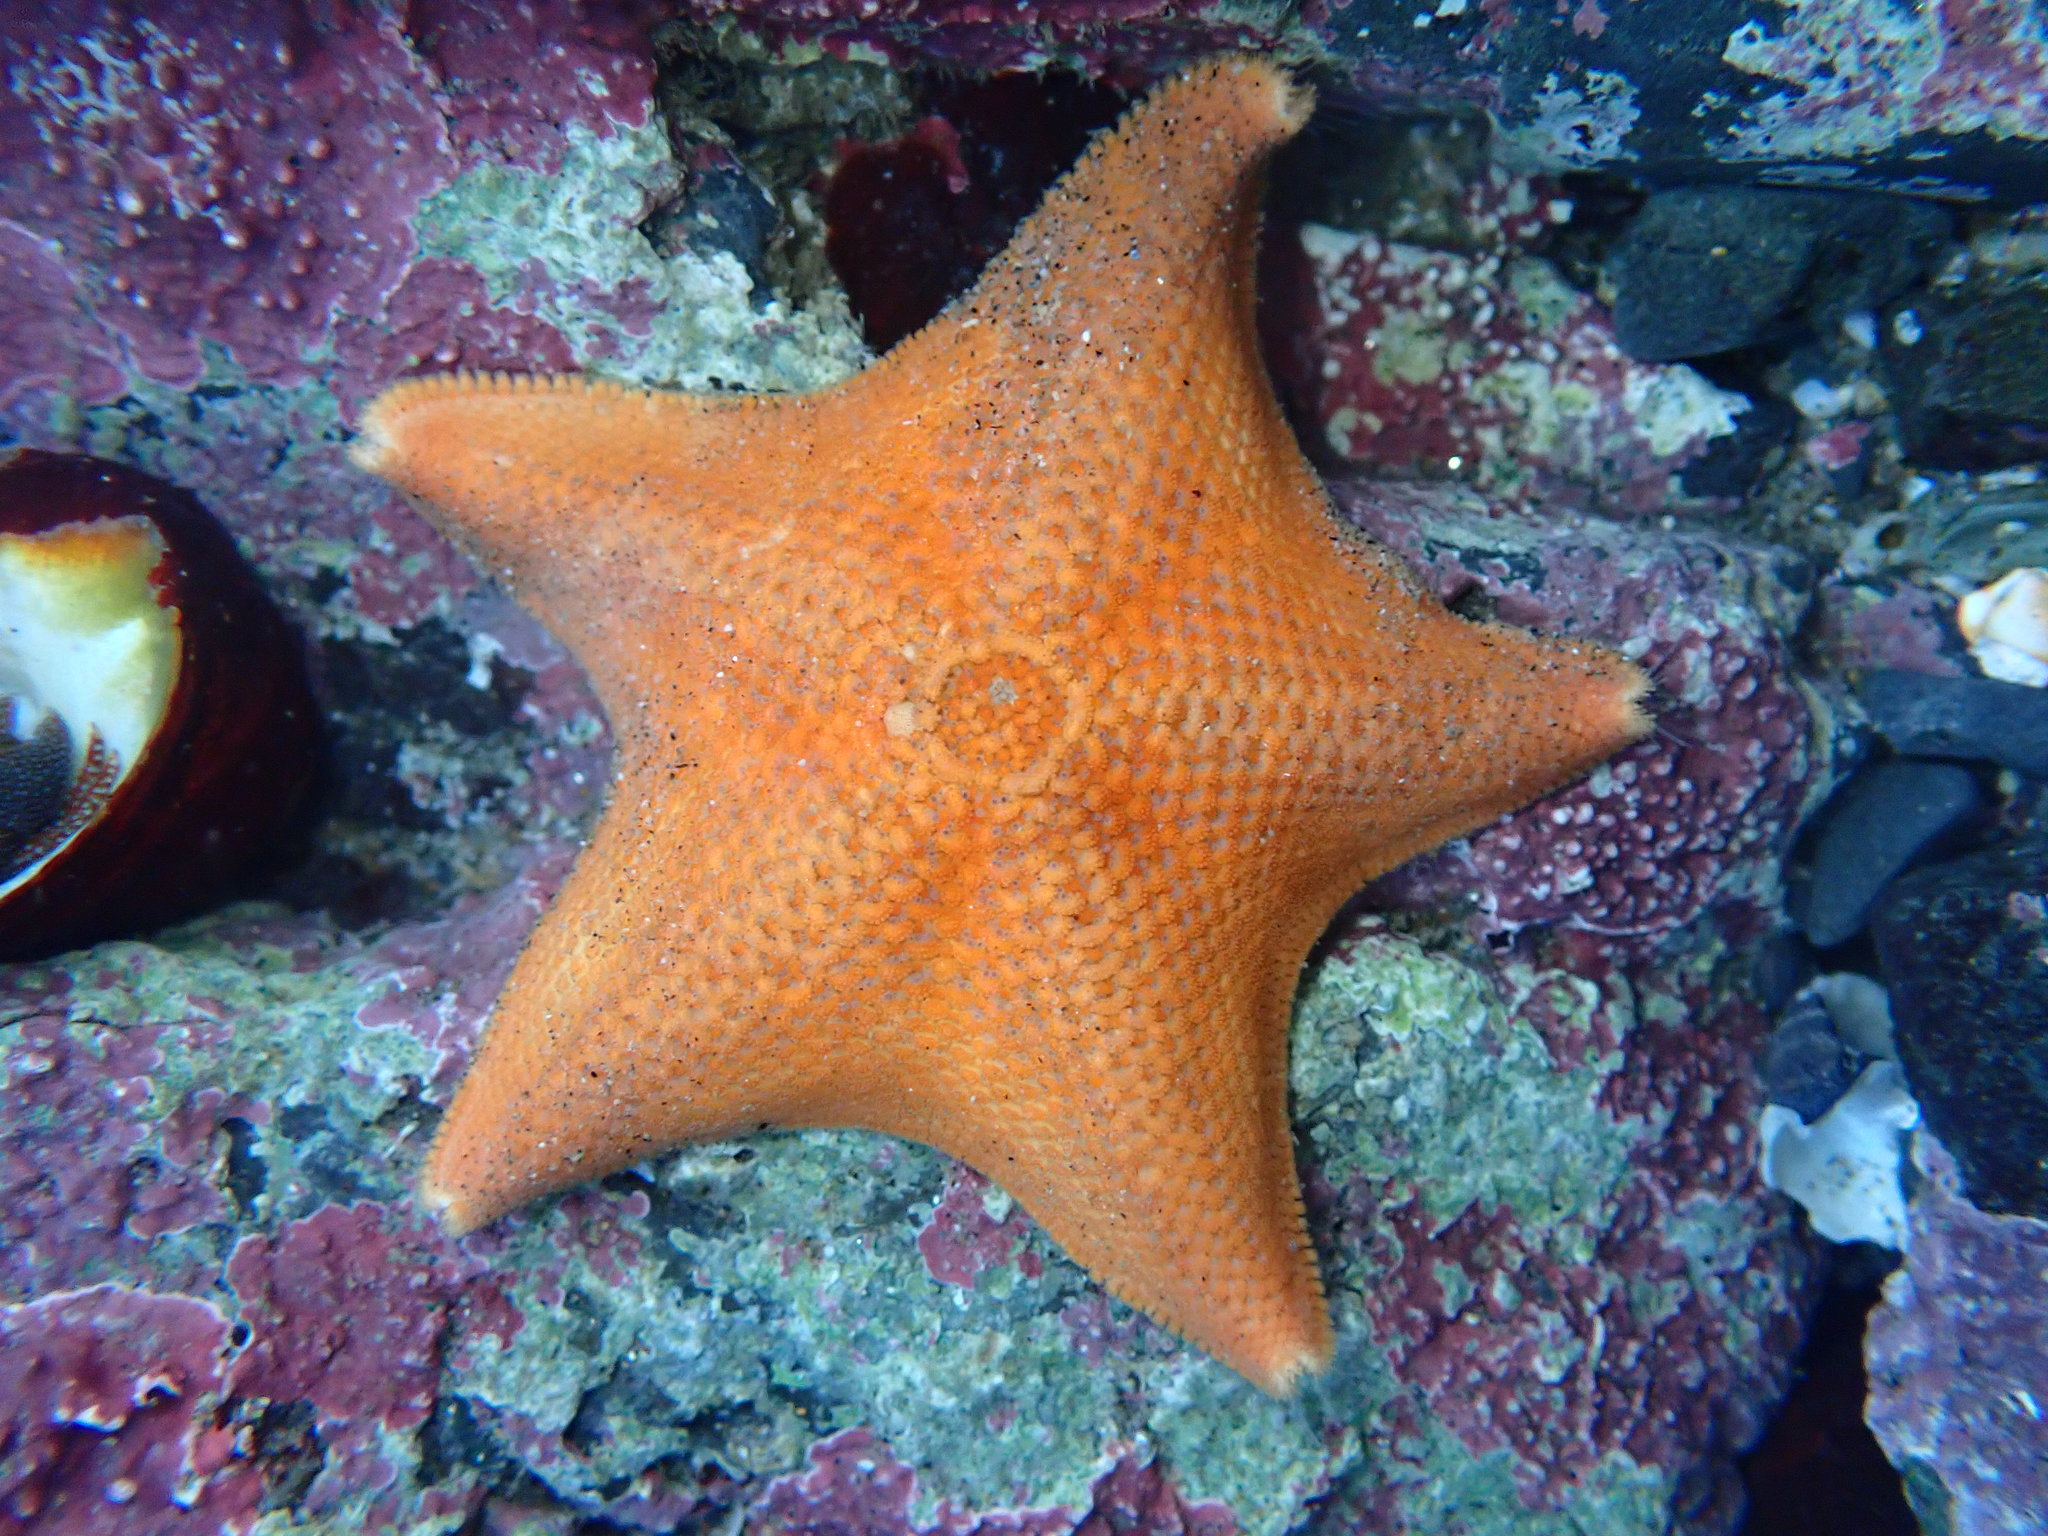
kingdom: Animalia
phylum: Echinodermata
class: Asteroidea
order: Valvatida
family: Asterinidae
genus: Patiria
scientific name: Patiria miniata
